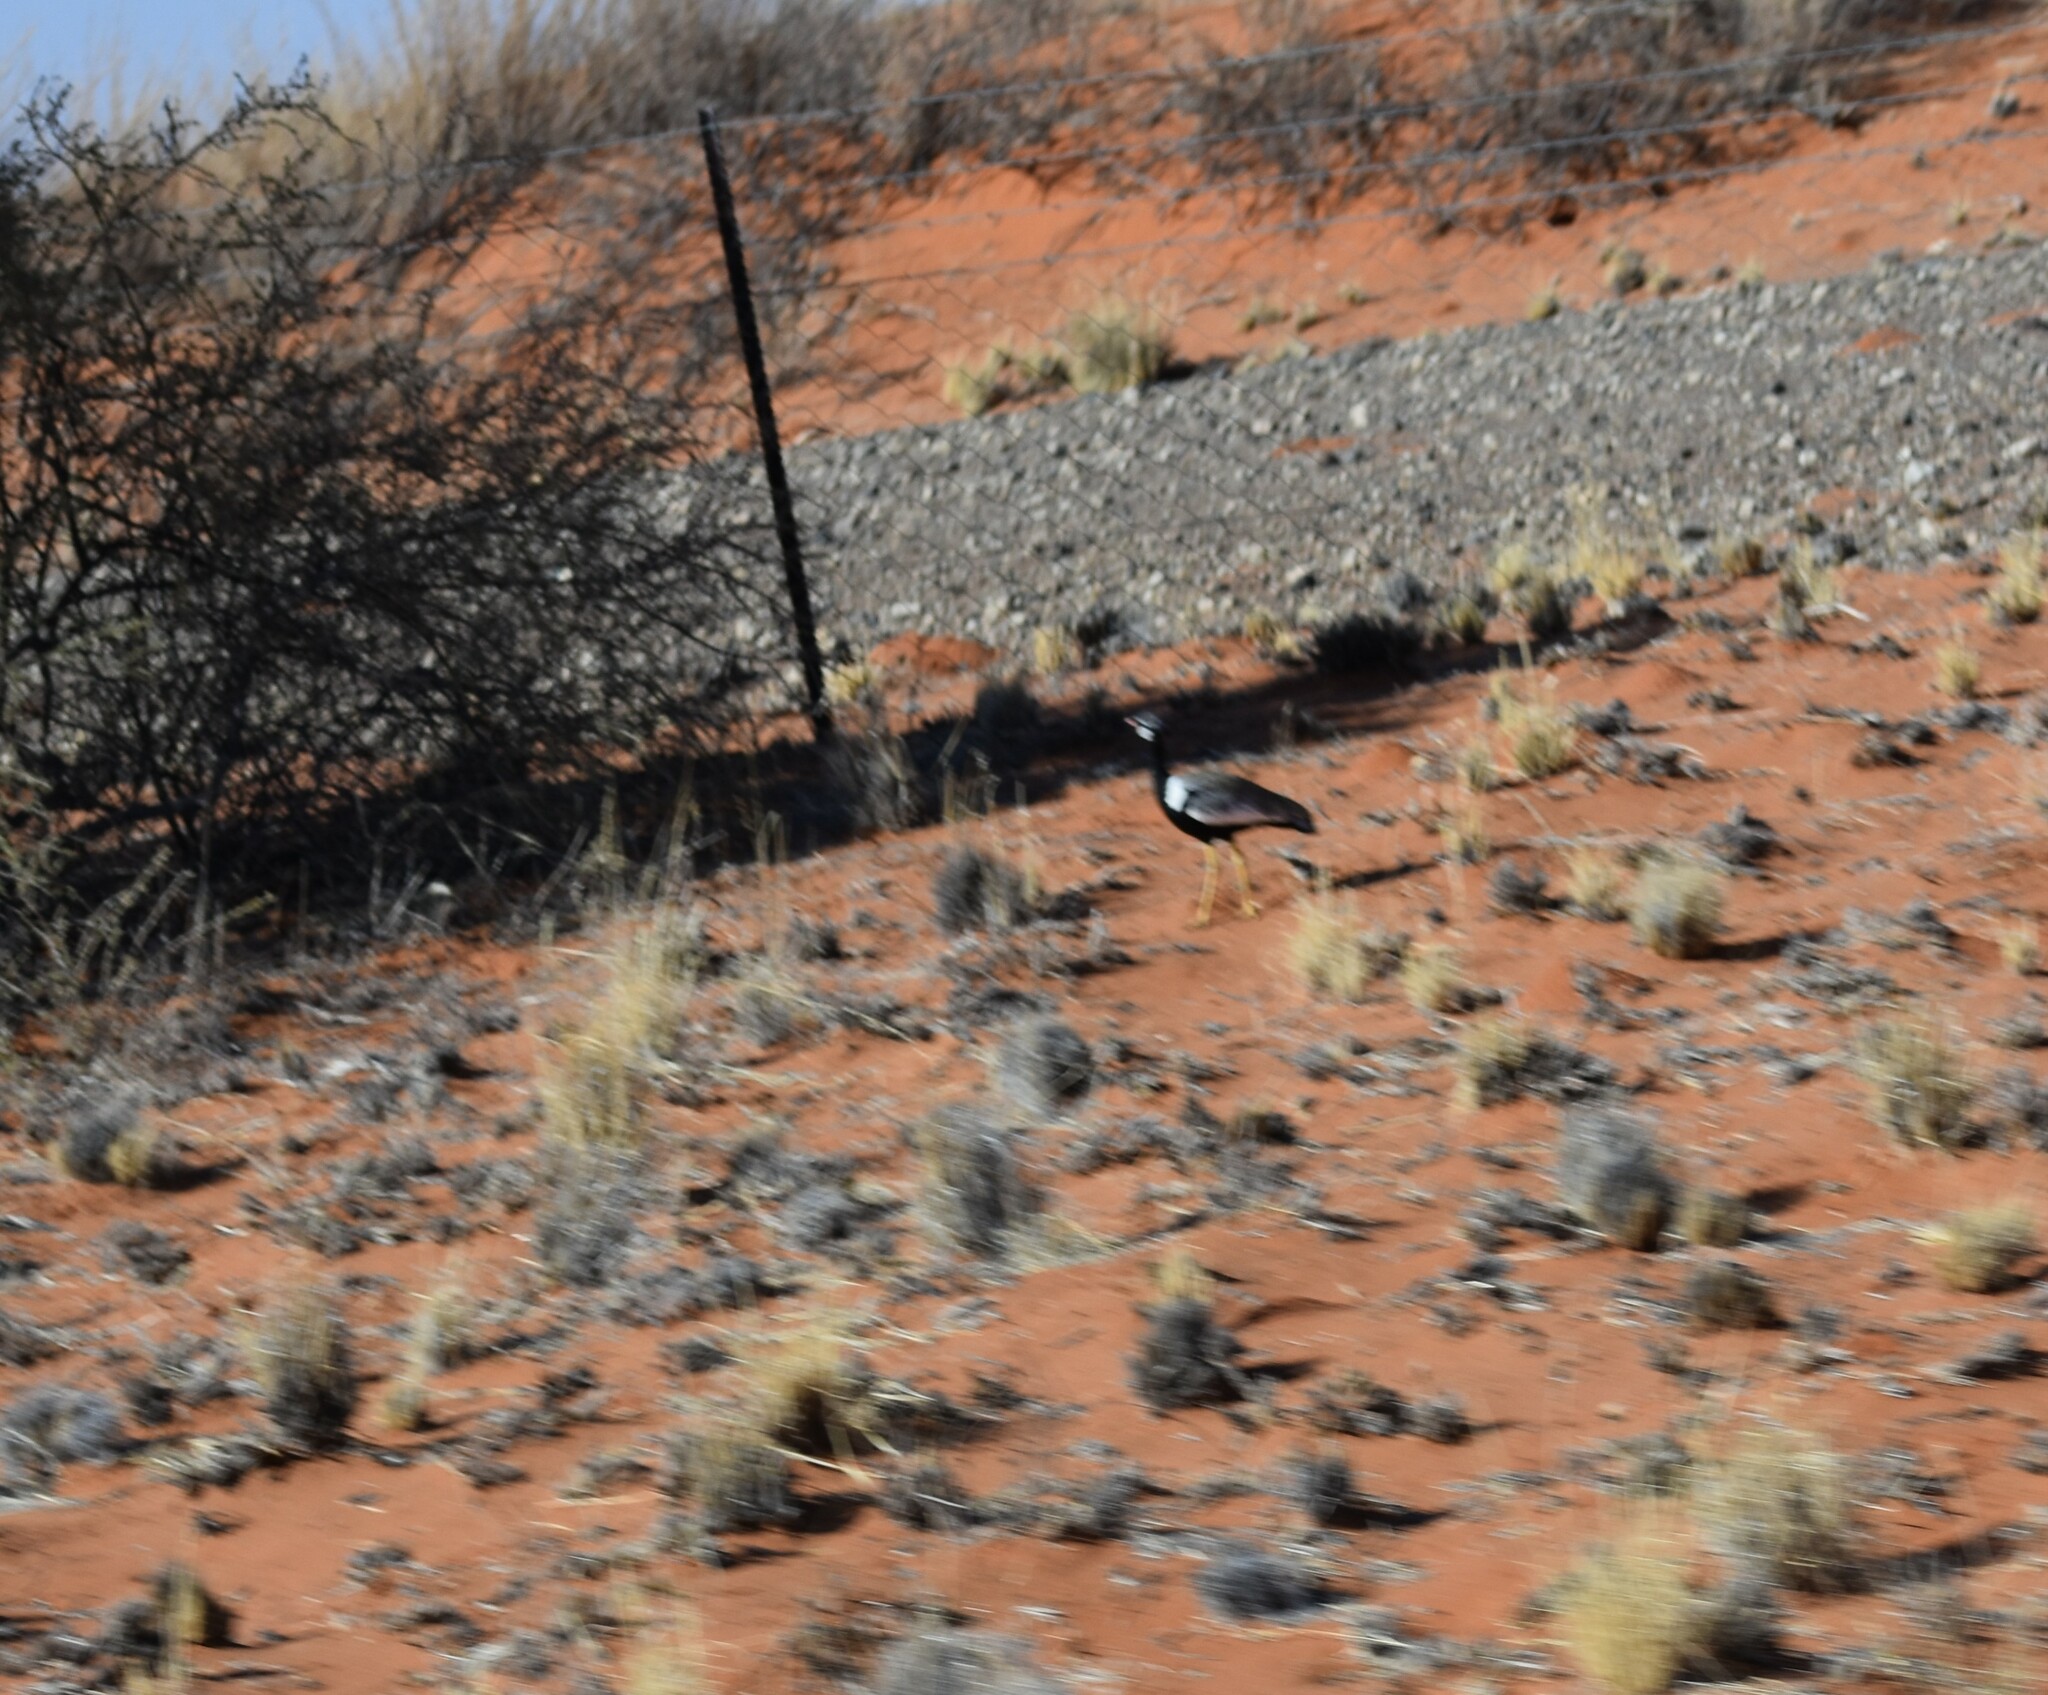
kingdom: Animalia
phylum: Chordata
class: Aves
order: Otidiformes
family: Otididae
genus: Afrotis
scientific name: Afrotis afraoides
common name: Northern black korhaan
